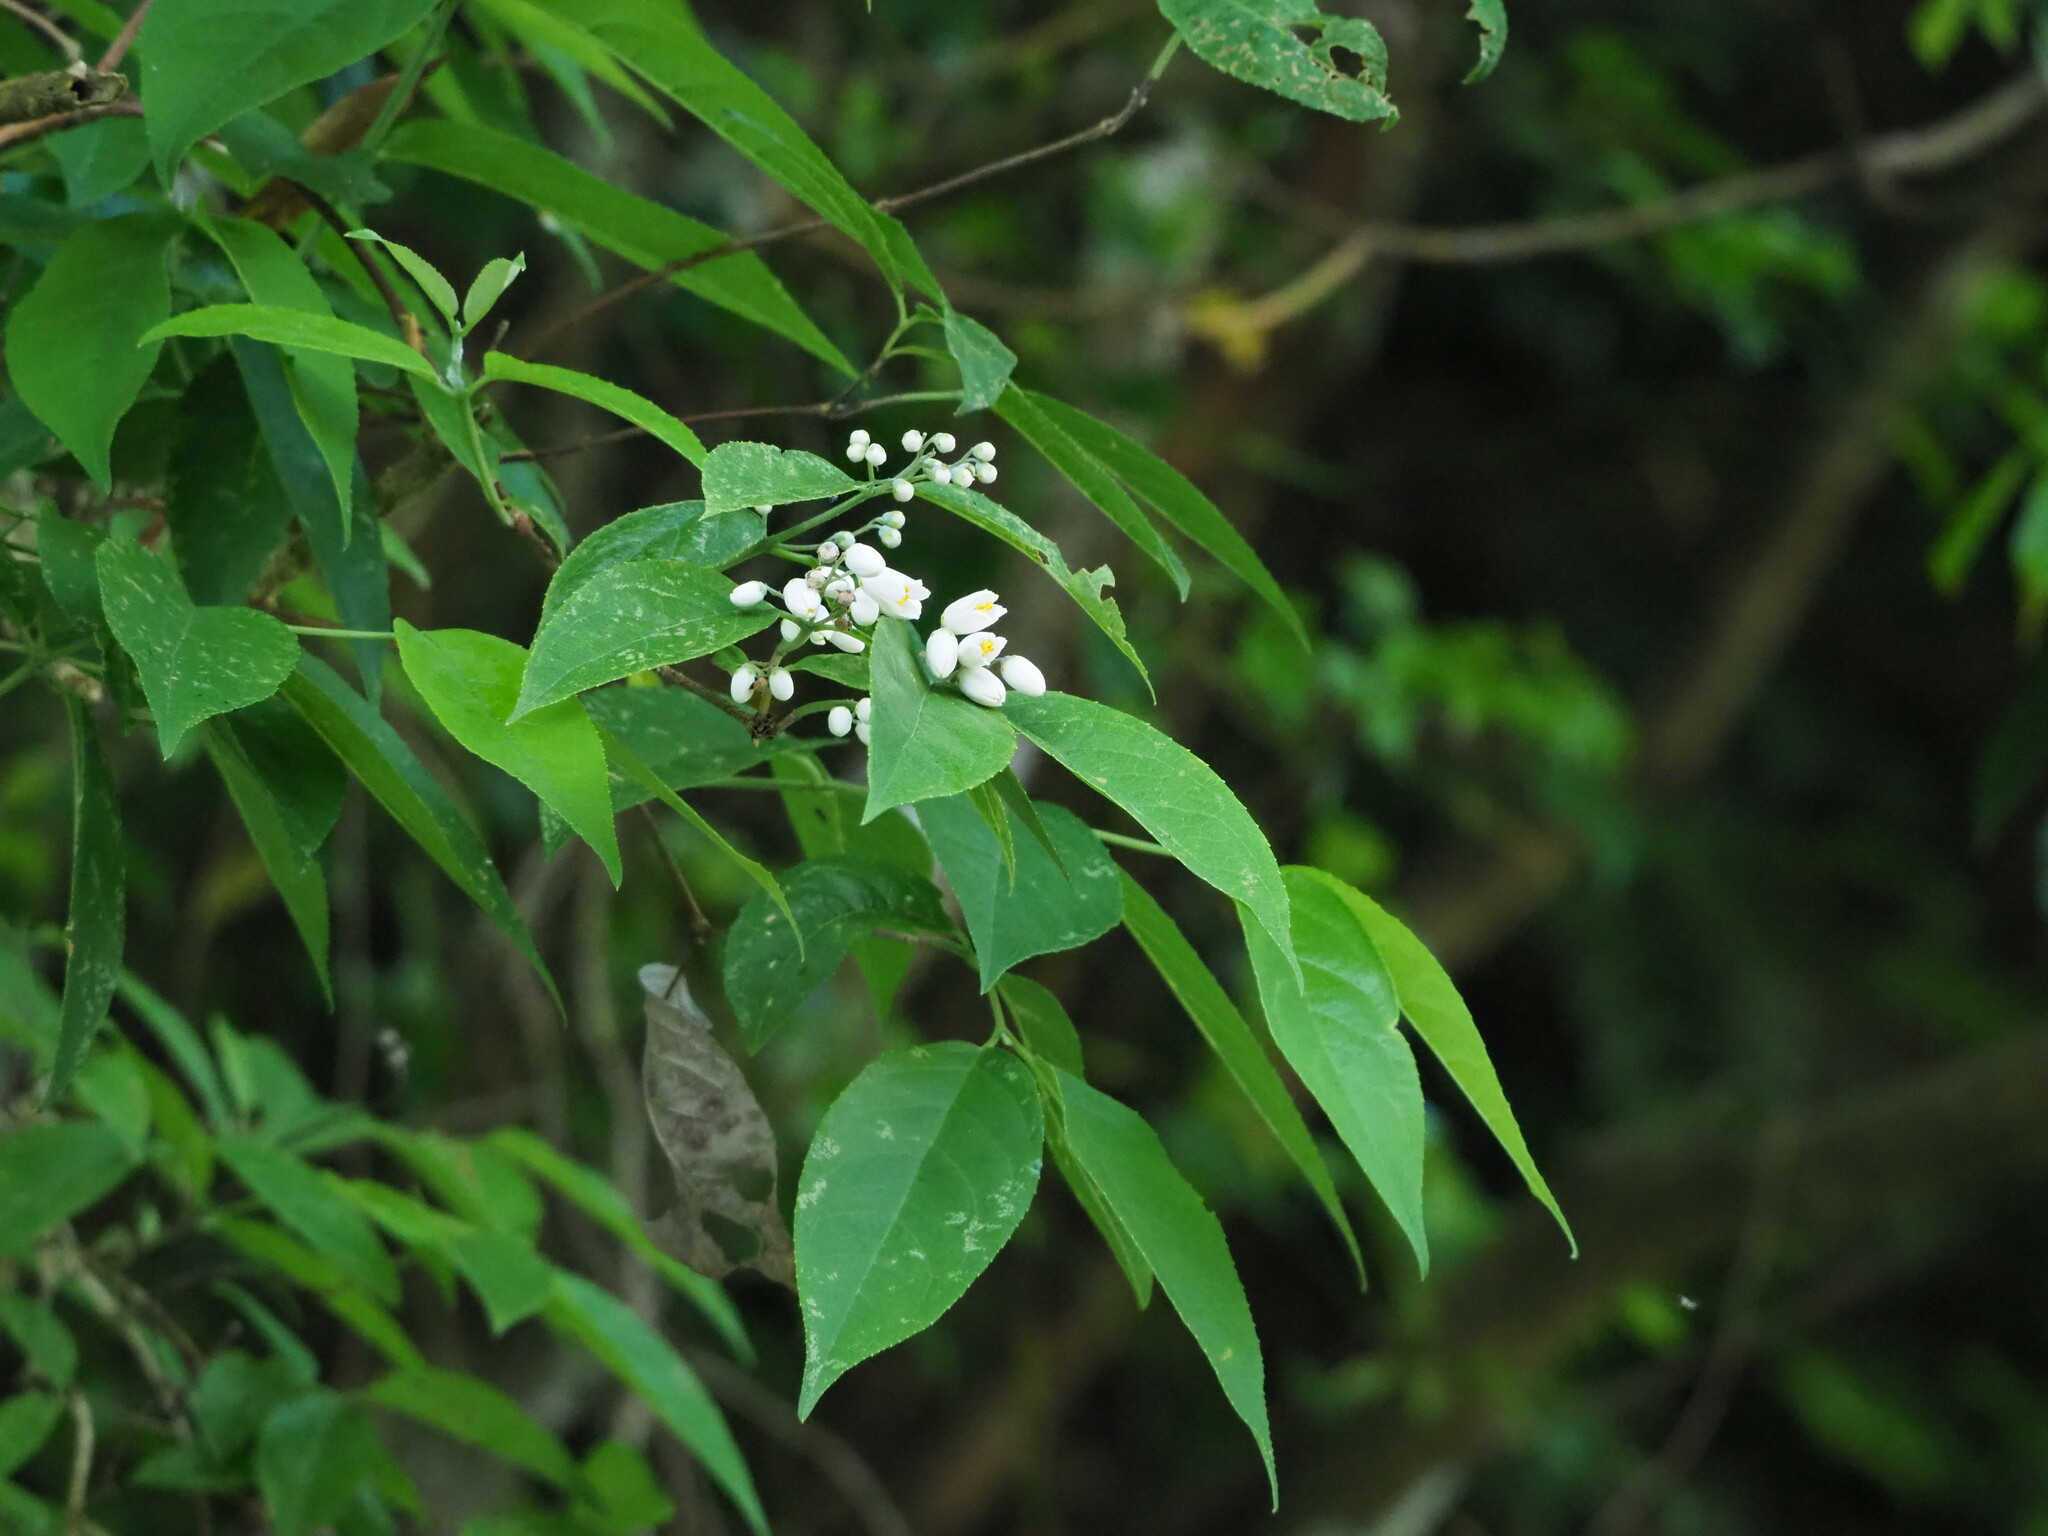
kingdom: Plantae
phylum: Tracheophyta
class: Magnoliopsida
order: Cornales
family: Hydrangeaceae
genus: Deutzia
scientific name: Deutzia pulchra
